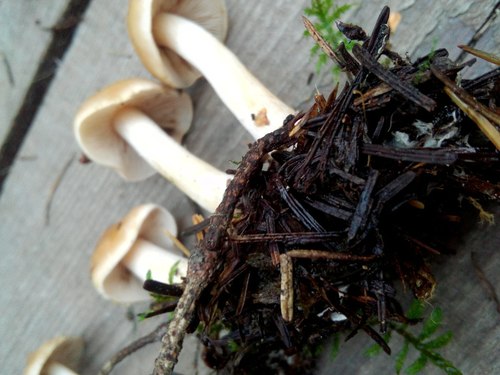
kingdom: Fungi
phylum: Basidiomycota
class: Agaricomycetes
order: Agaricales
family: Hymenogastraceae
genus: Hebeloma
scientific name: Hebeloma
